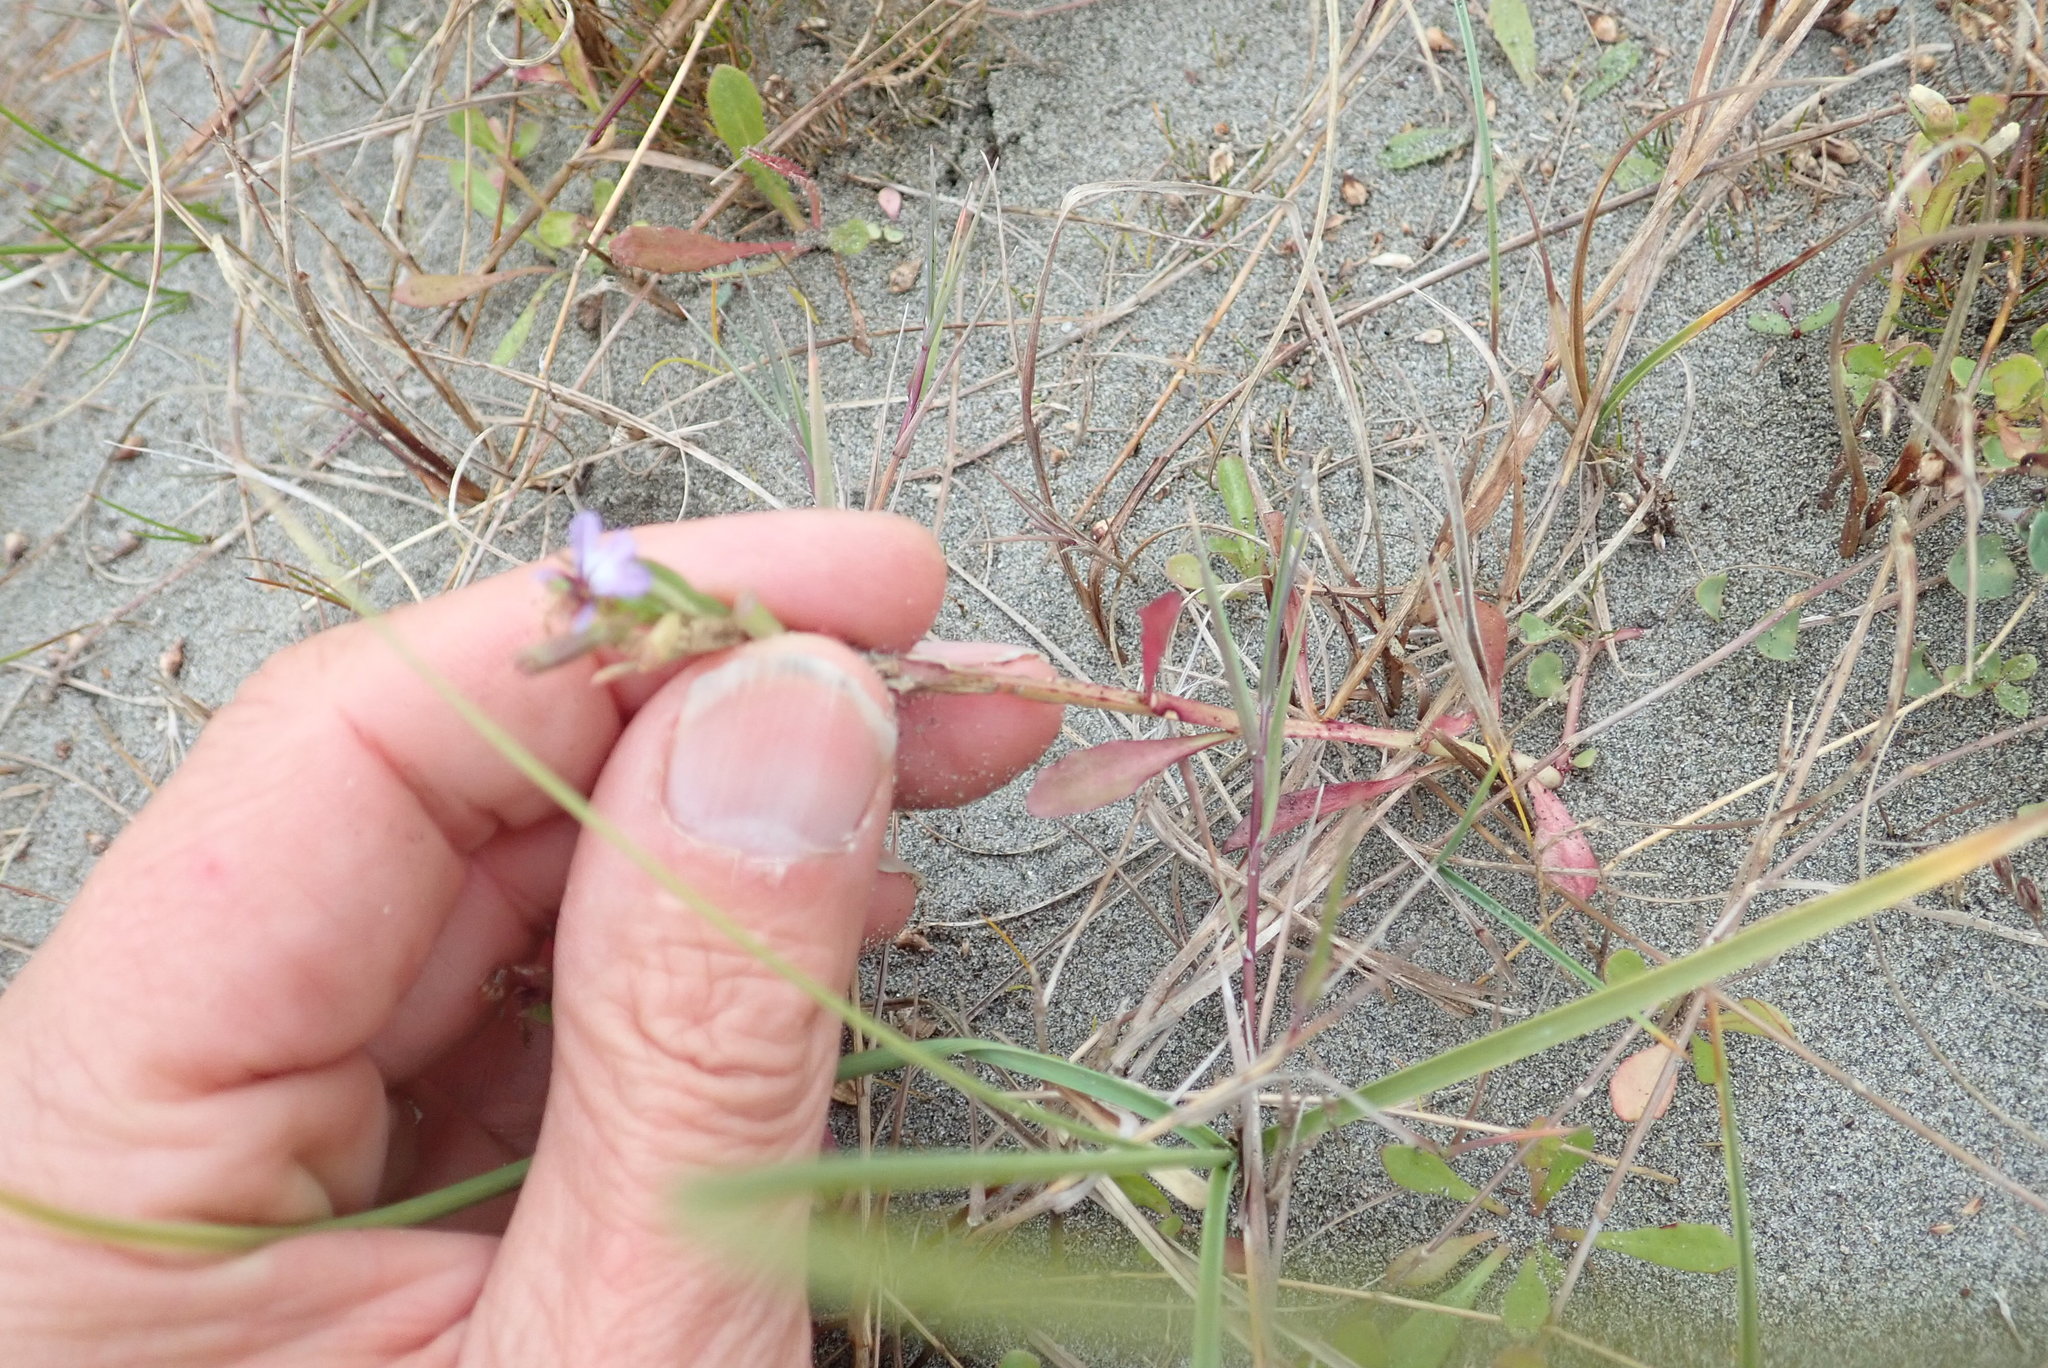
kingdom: Plantae
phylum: Tracheophyta
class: Magnoliopsida
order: Asterales
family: Campanulaceae
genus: Lobelia
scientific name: Lobelia anceps
